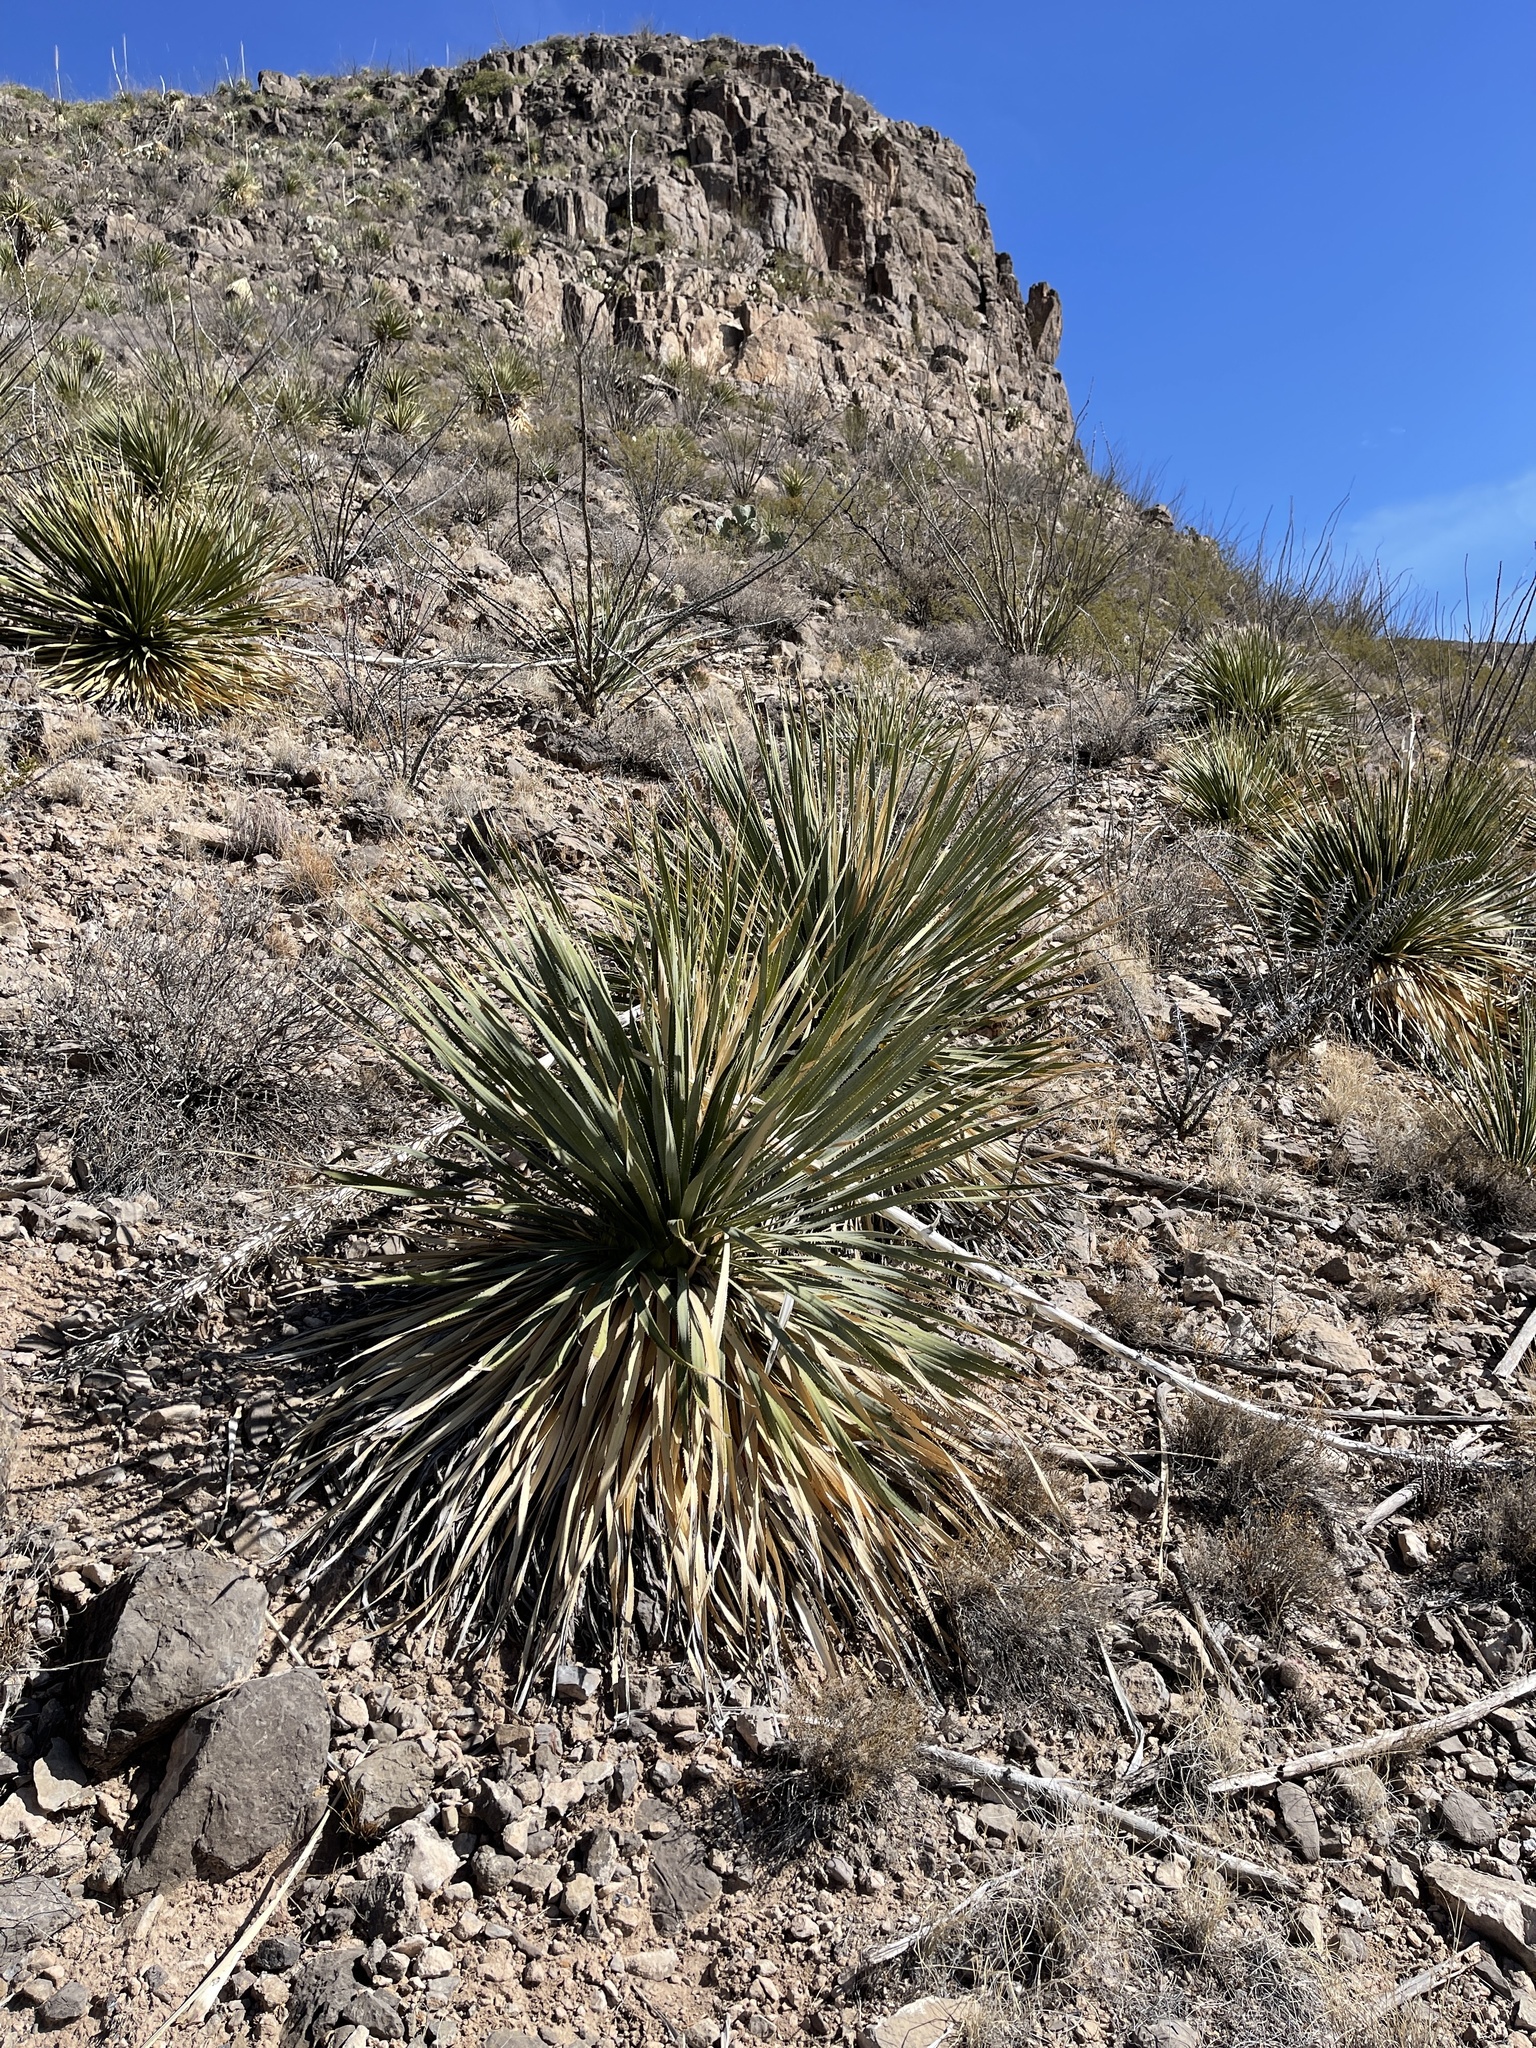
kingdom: Plantae
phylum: Tracheophyta
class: Liliopsida
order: Asparagales
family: Asparagaceae
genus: Dasylirion
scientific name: Dasylirion wheeleri
